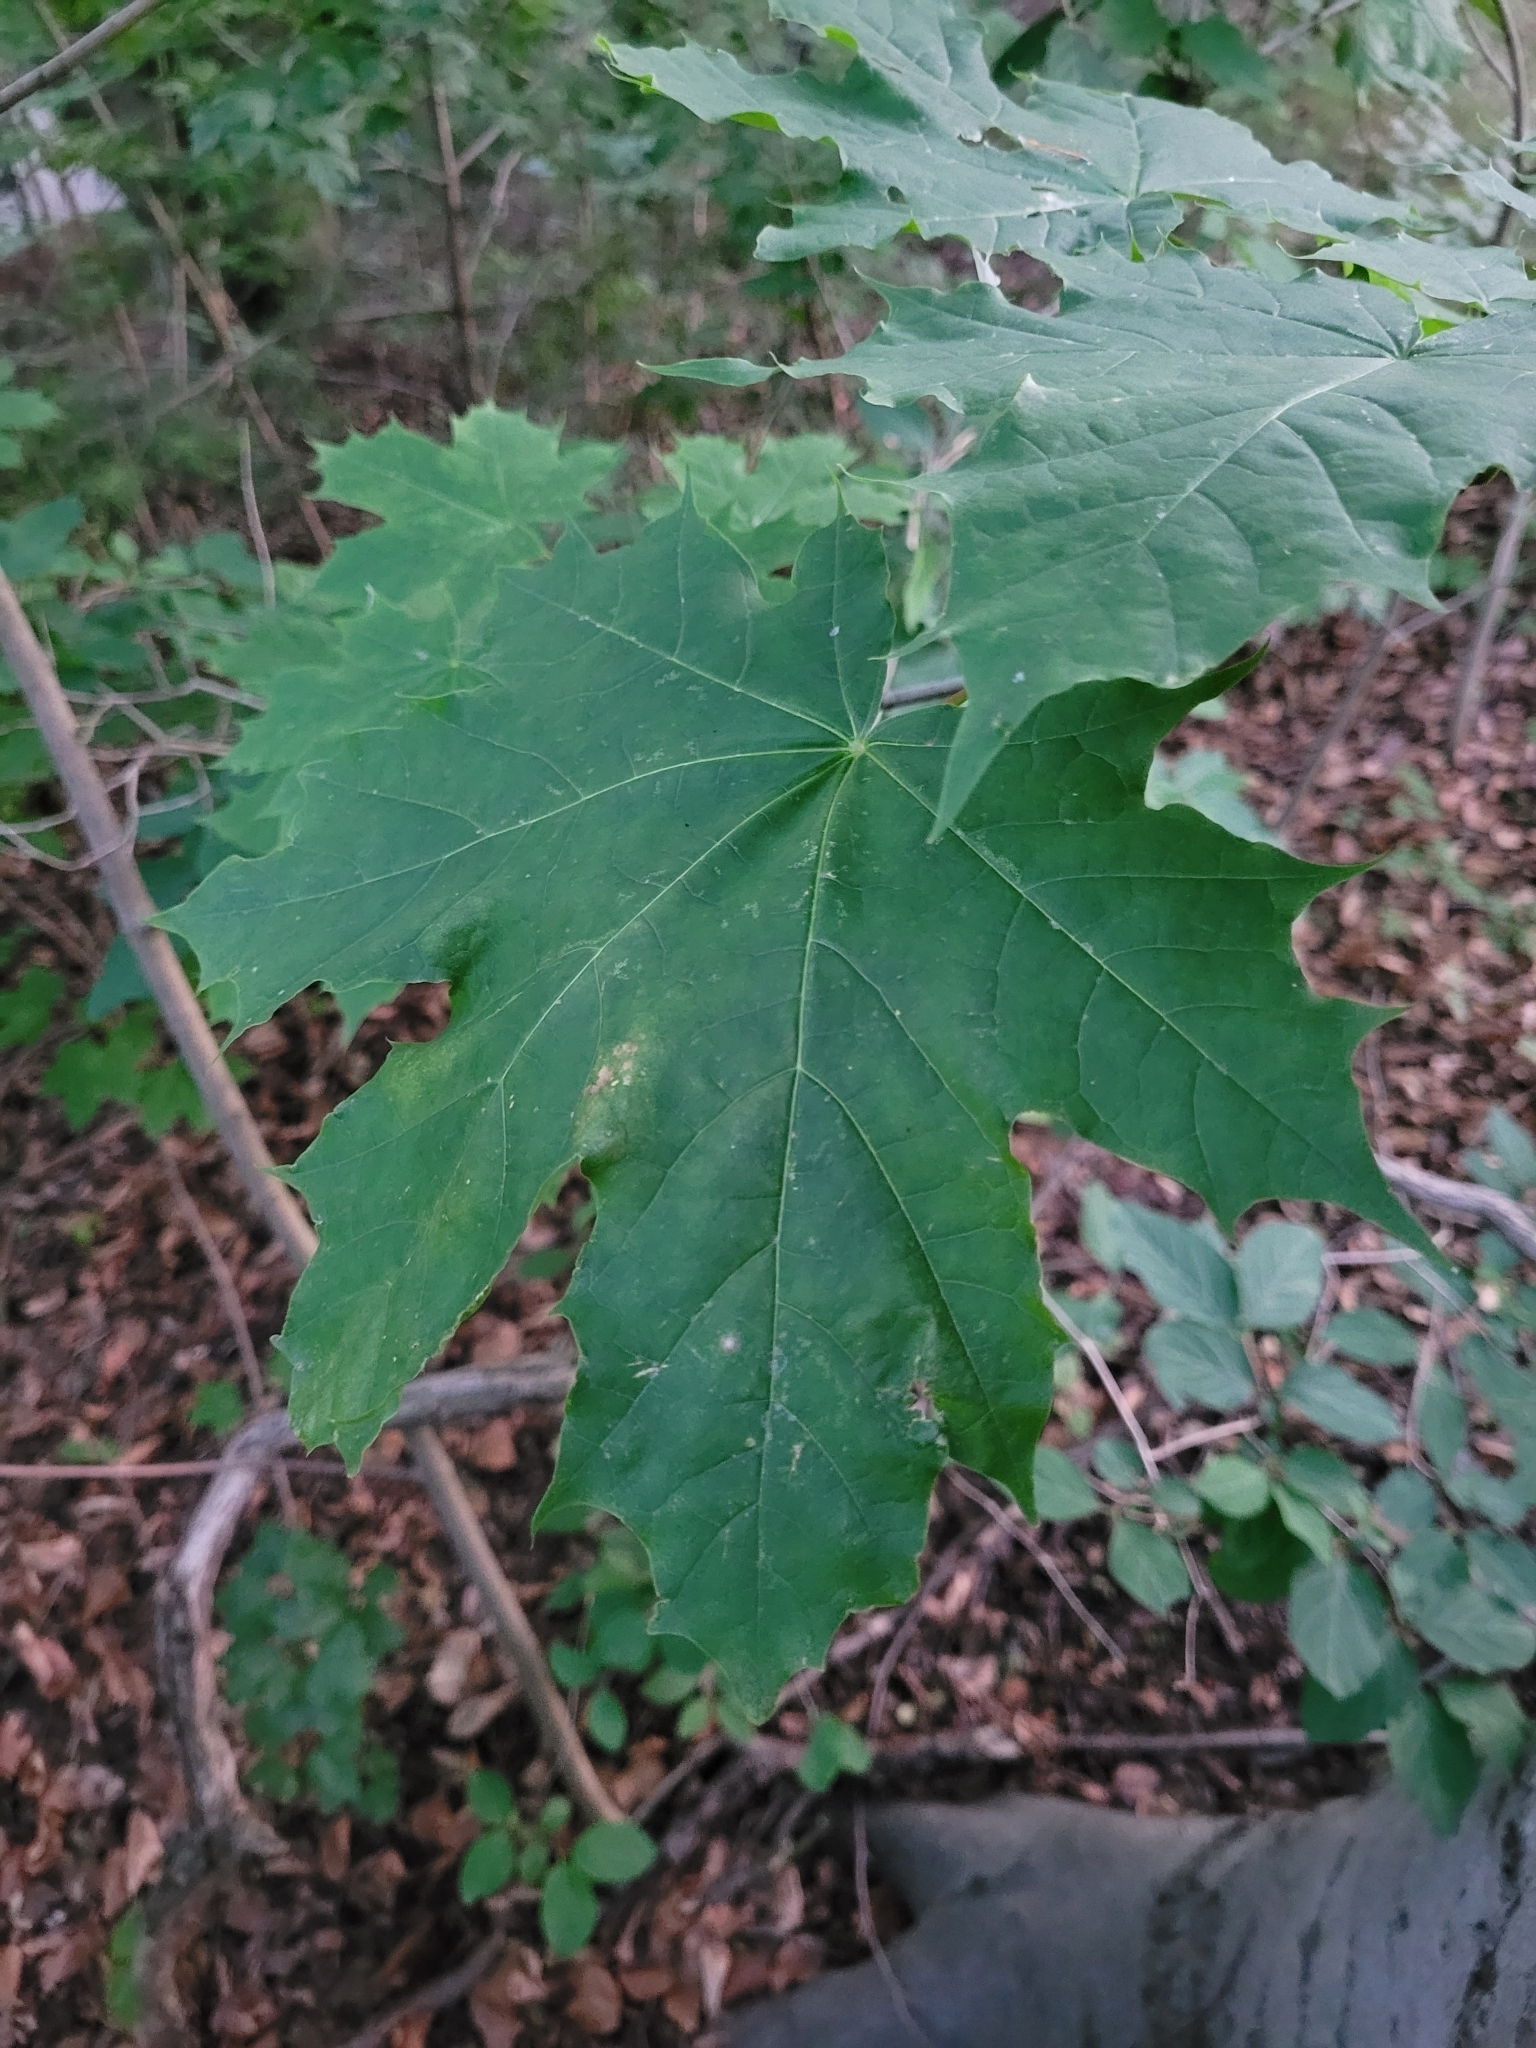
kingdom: Plantae
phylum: Tracheophyta
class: Magnoliopsida
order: Sapindales
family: Sapindaceae
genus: Acer
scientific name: Acer platanoides
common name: Norway maple
